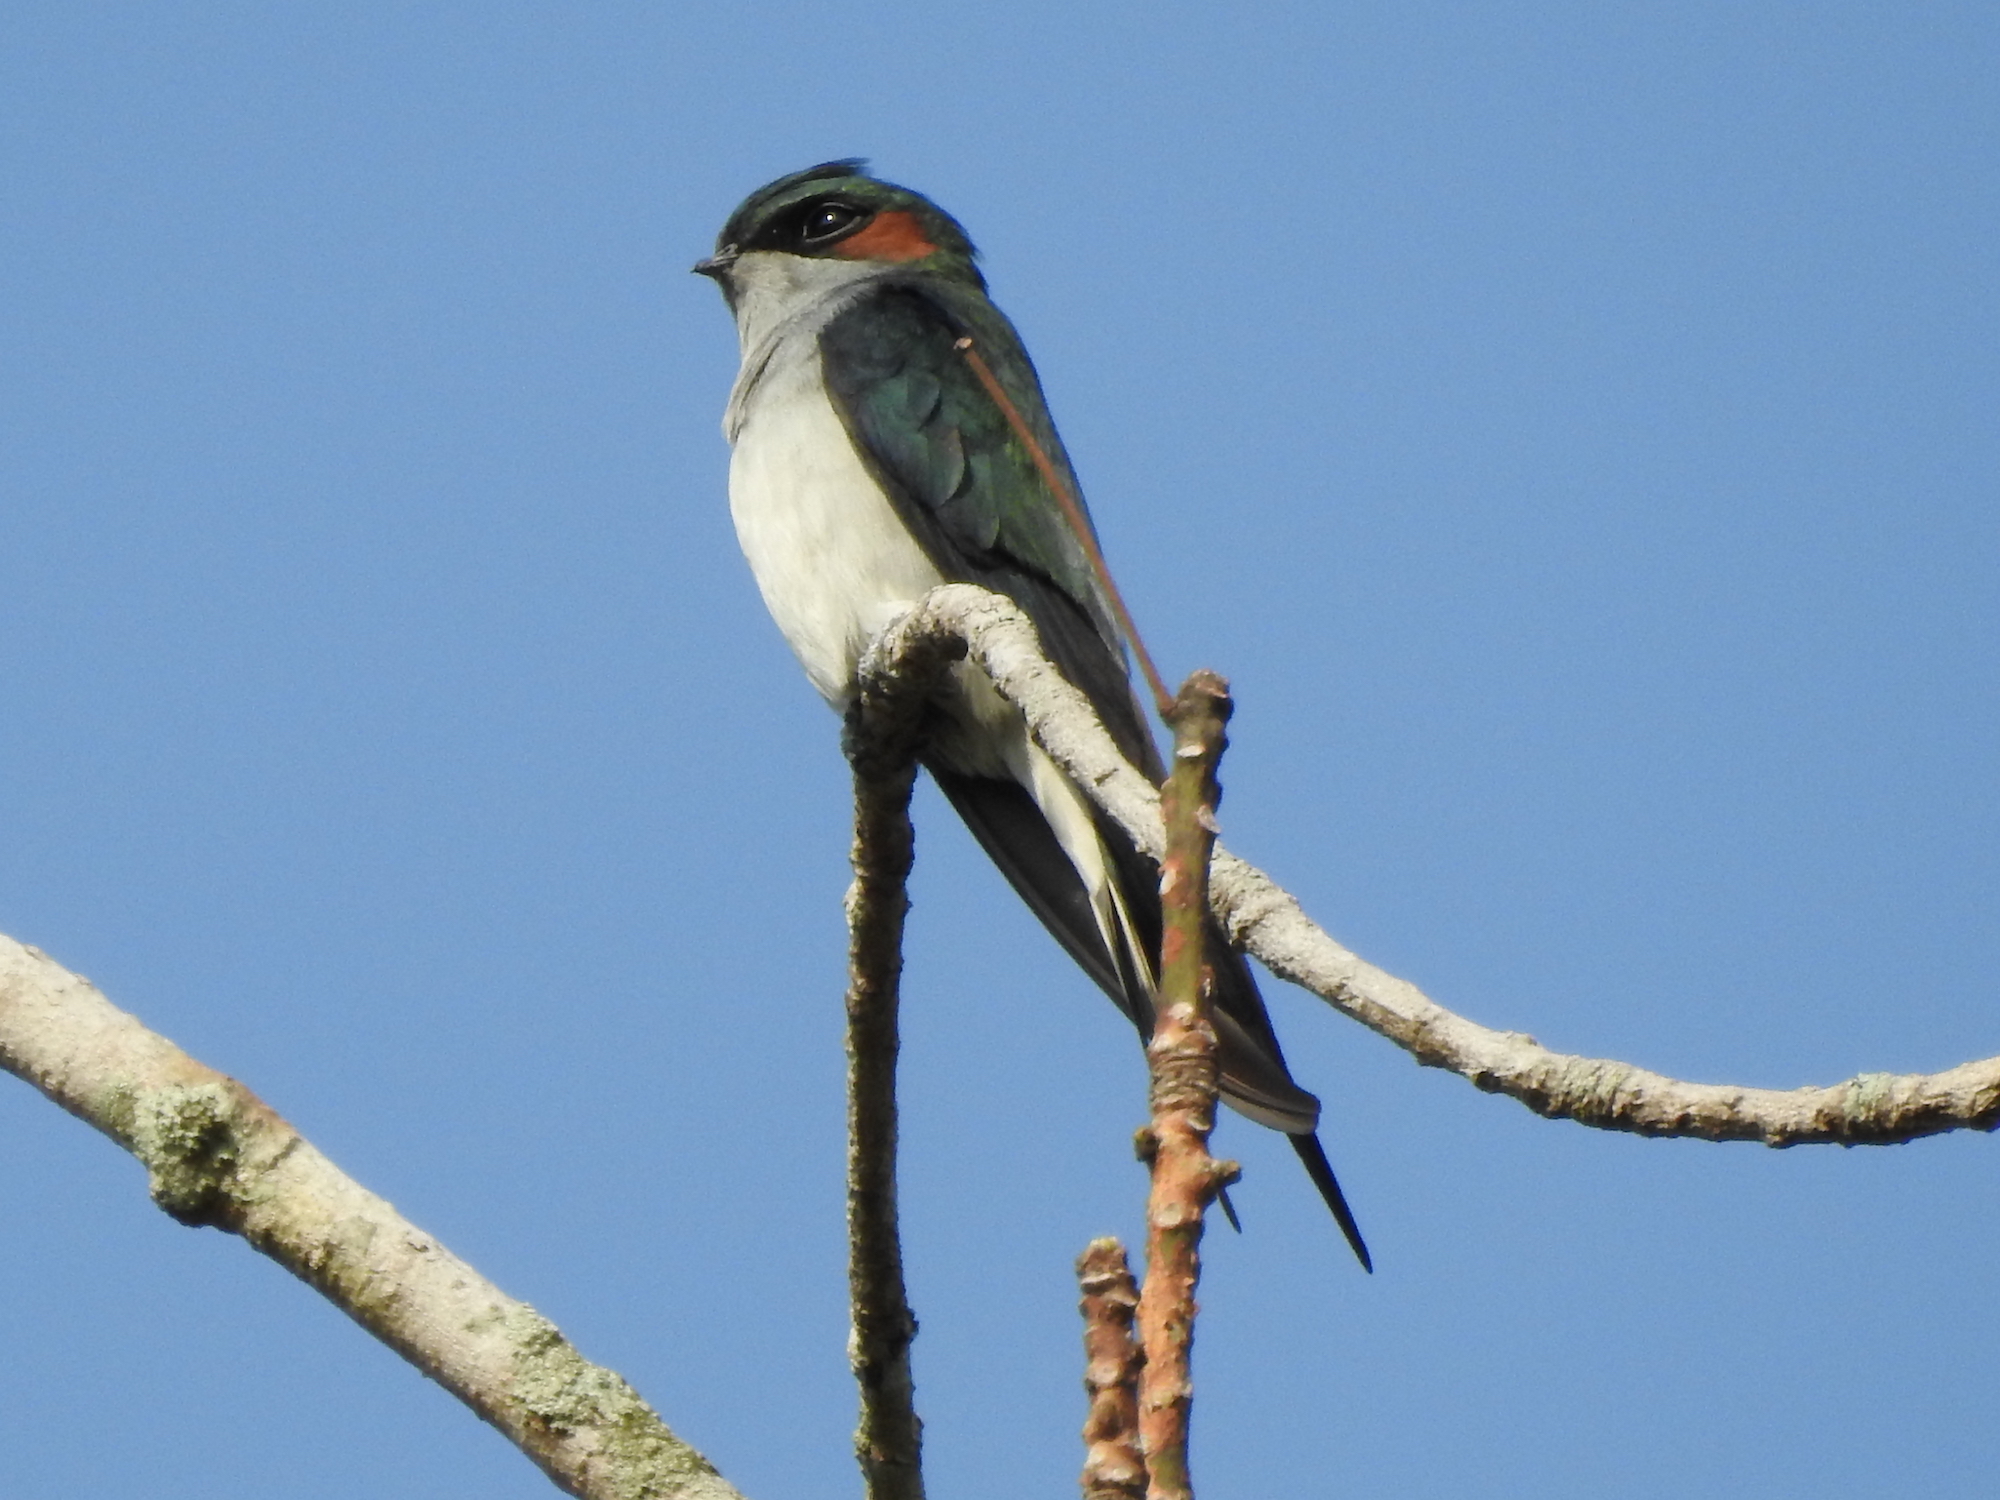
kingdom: Animalia
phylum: Chordata
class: Aves
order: Apodiformes
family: Hemiprocnidae
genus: Hemiprocne
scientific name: Hemiprocne longipennis
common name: Grey-rumped treeswift
